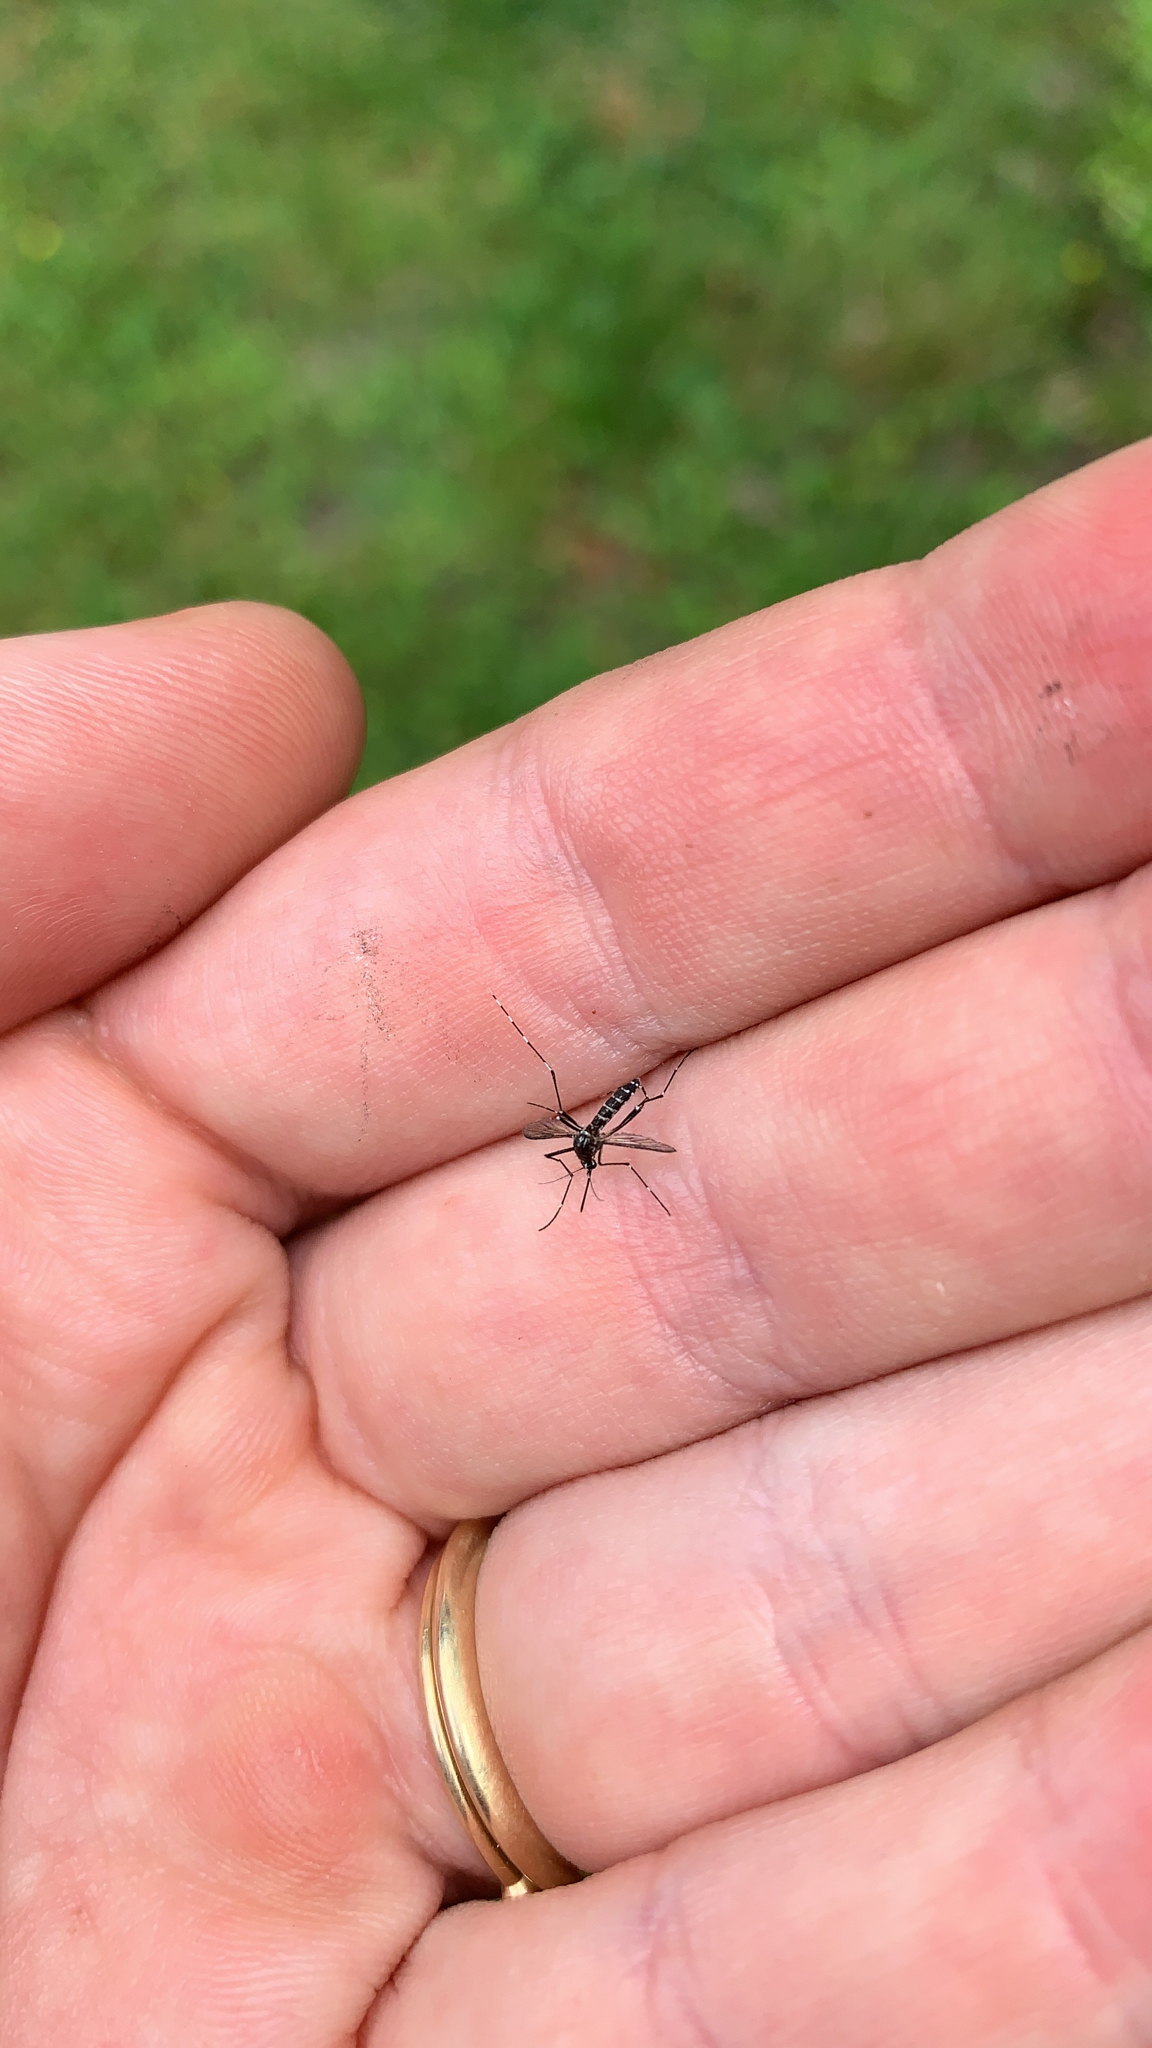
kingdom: Animalia
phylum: Arthropoda
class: Insecta
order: Diptera
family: Culicidae
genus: Aedes
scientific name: Aedes
